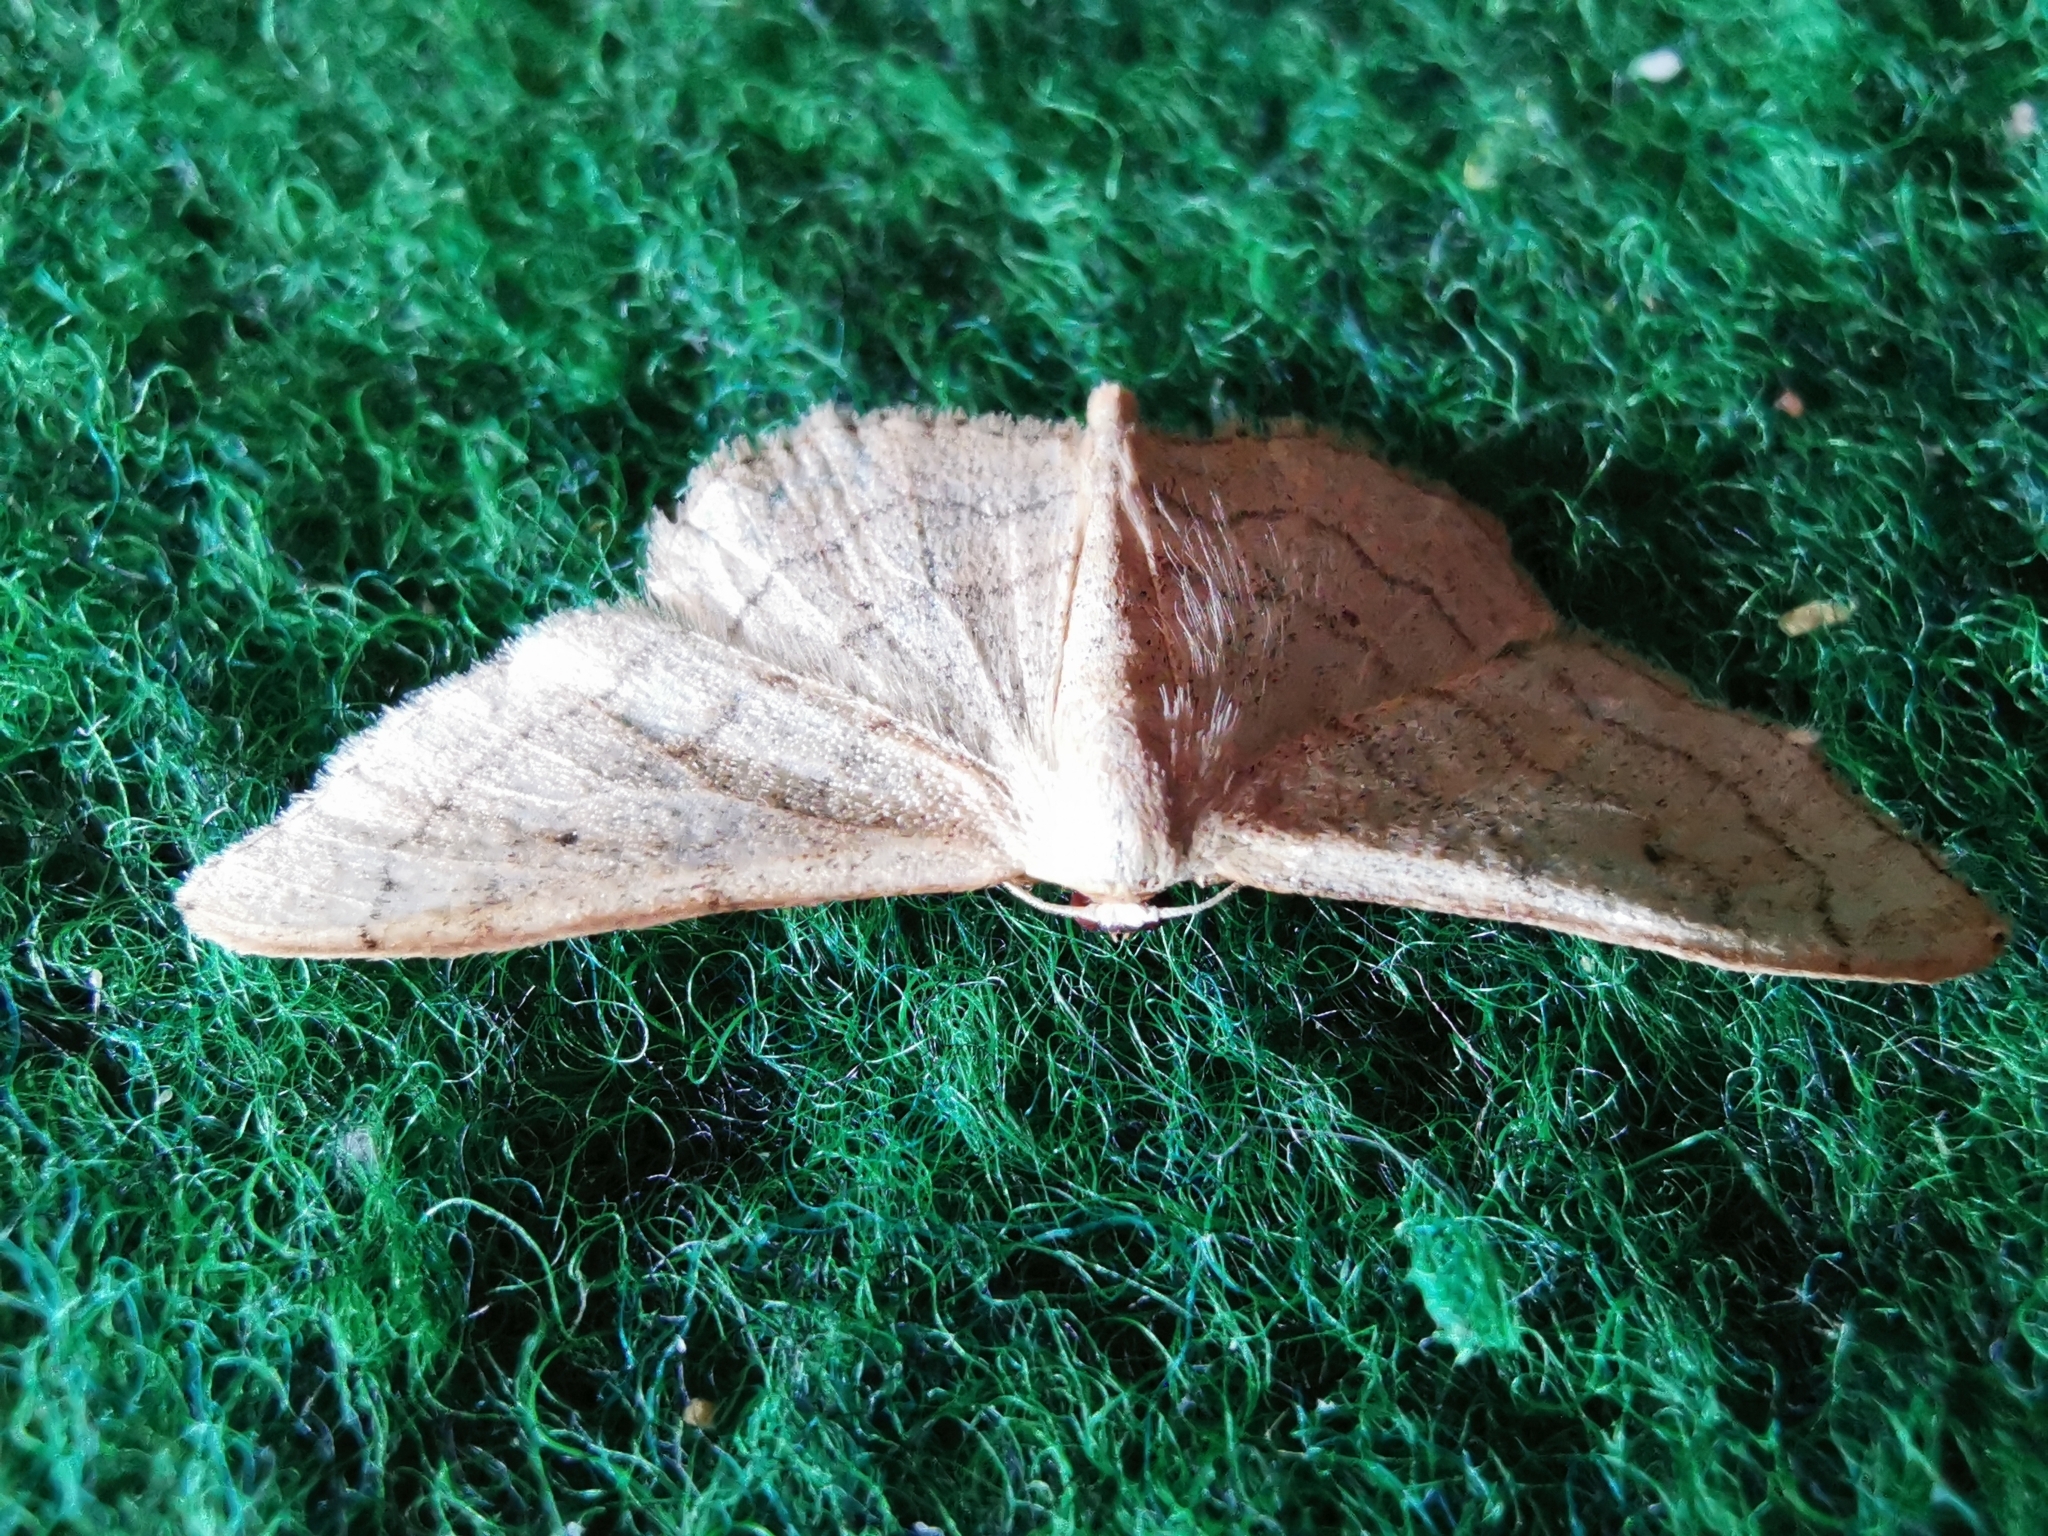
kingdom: Animalia
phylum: Arthropoda
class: Insecta
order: Lepidoptera
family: Geometridae
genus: Idaea
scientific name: Idaea aversata
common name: Riband wave
